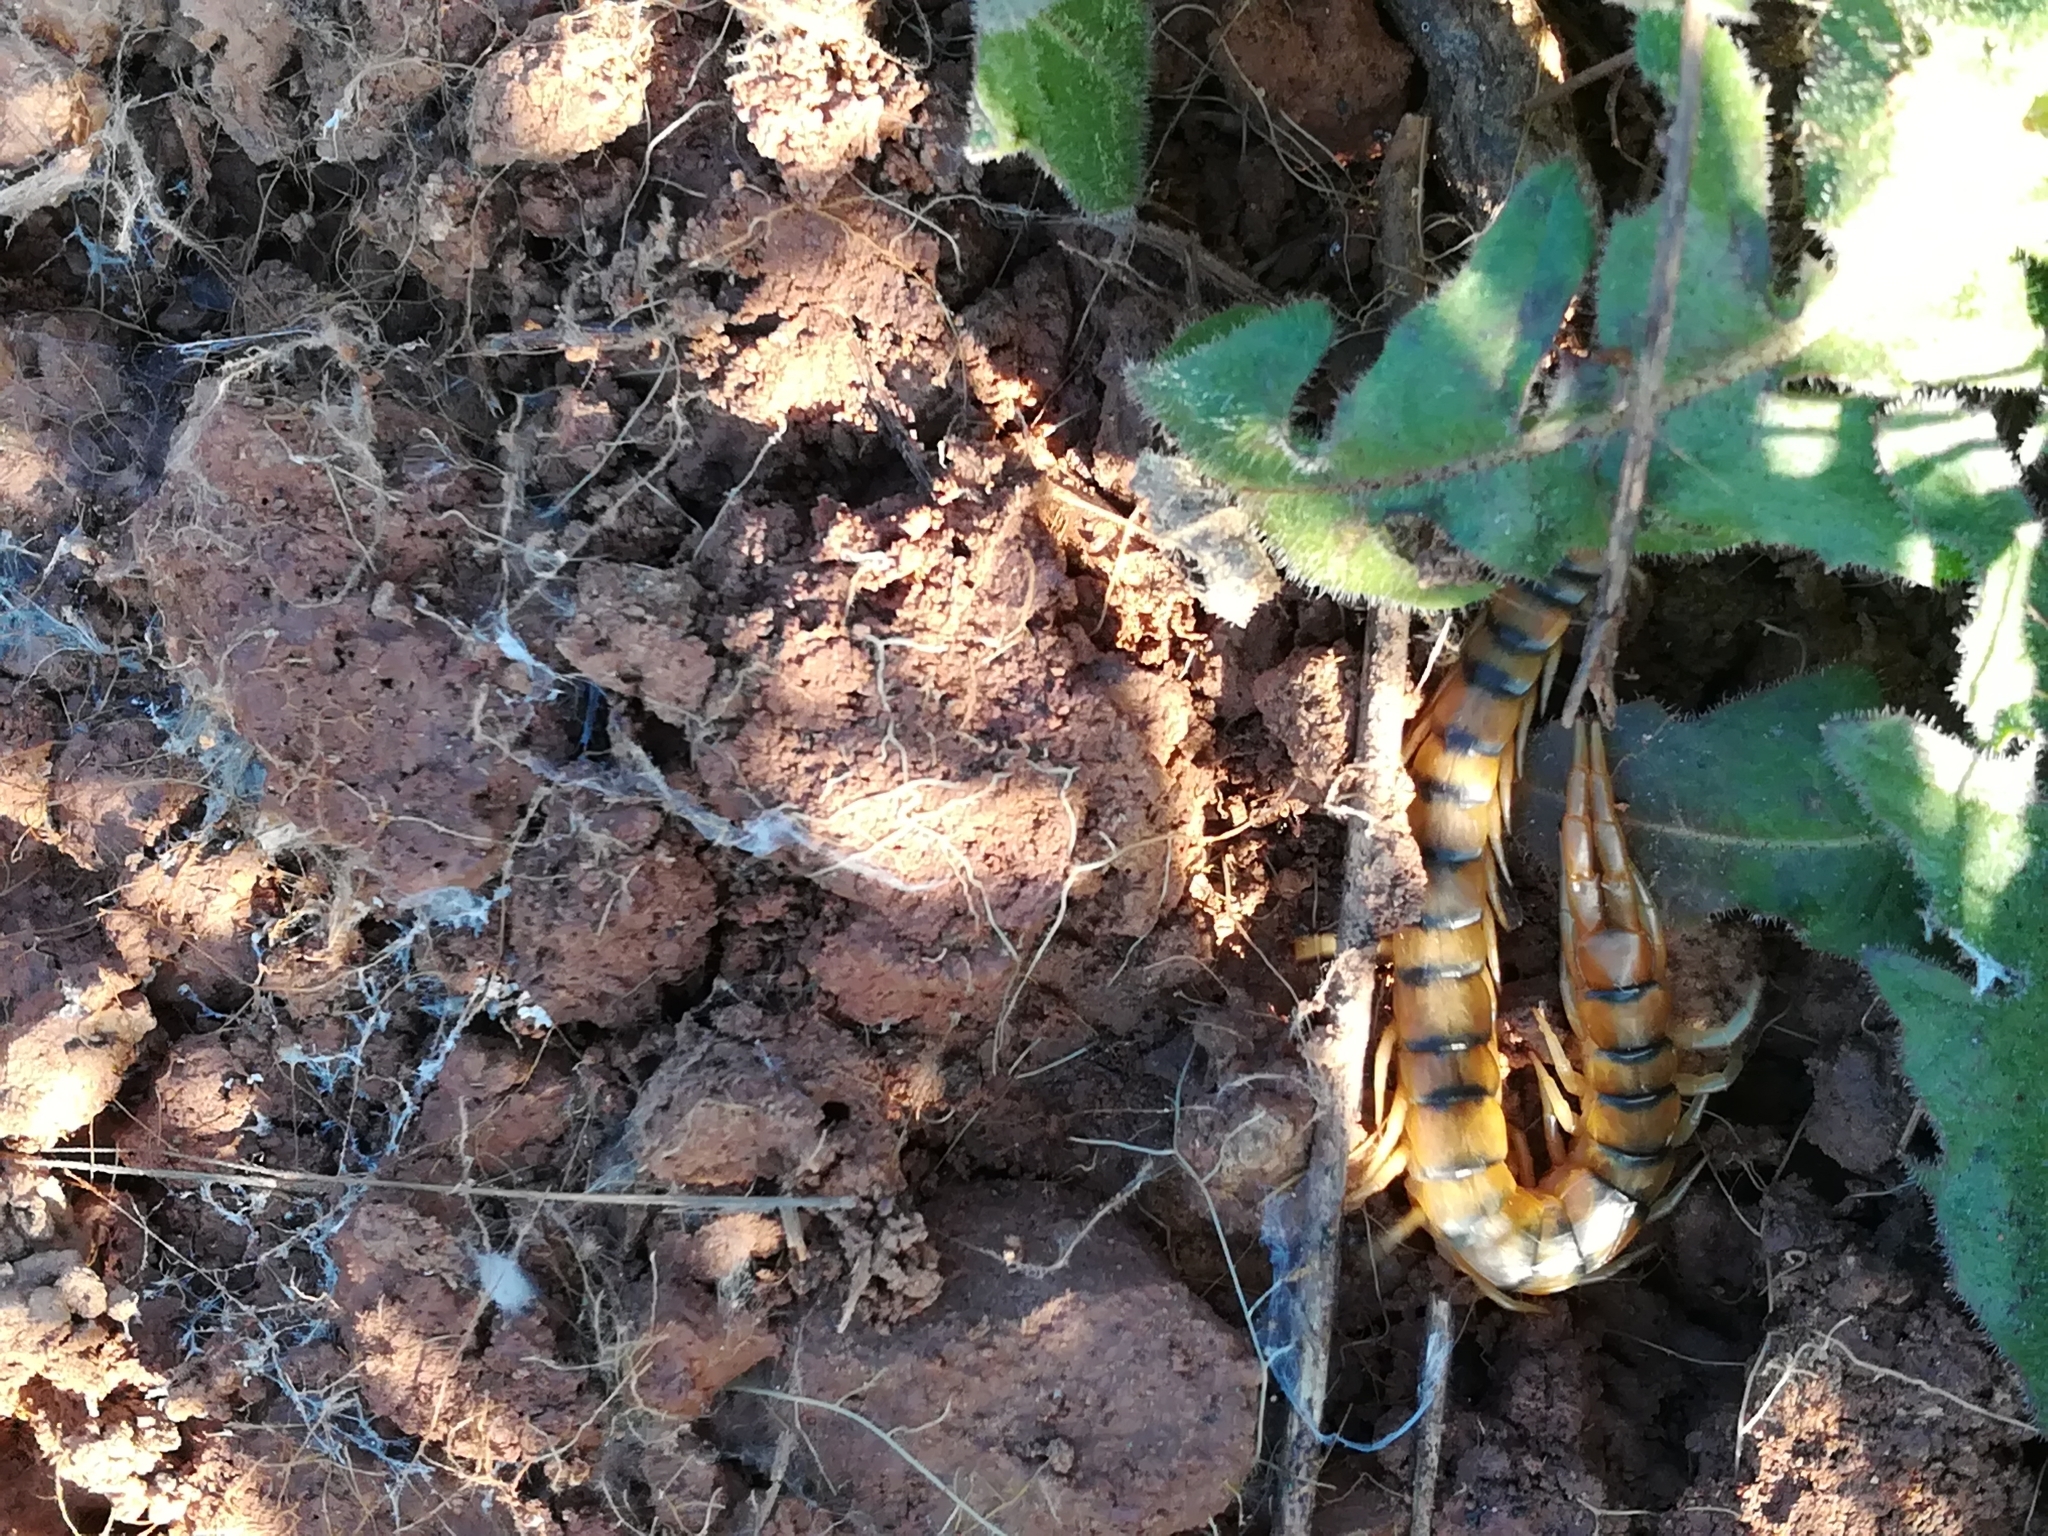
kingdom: Animalia
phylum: Arthropoda
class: Chilopoda
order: Scolopendromorpha
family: Scolopendridae
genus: Scolopendra
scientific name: Scolopendra cingulata
